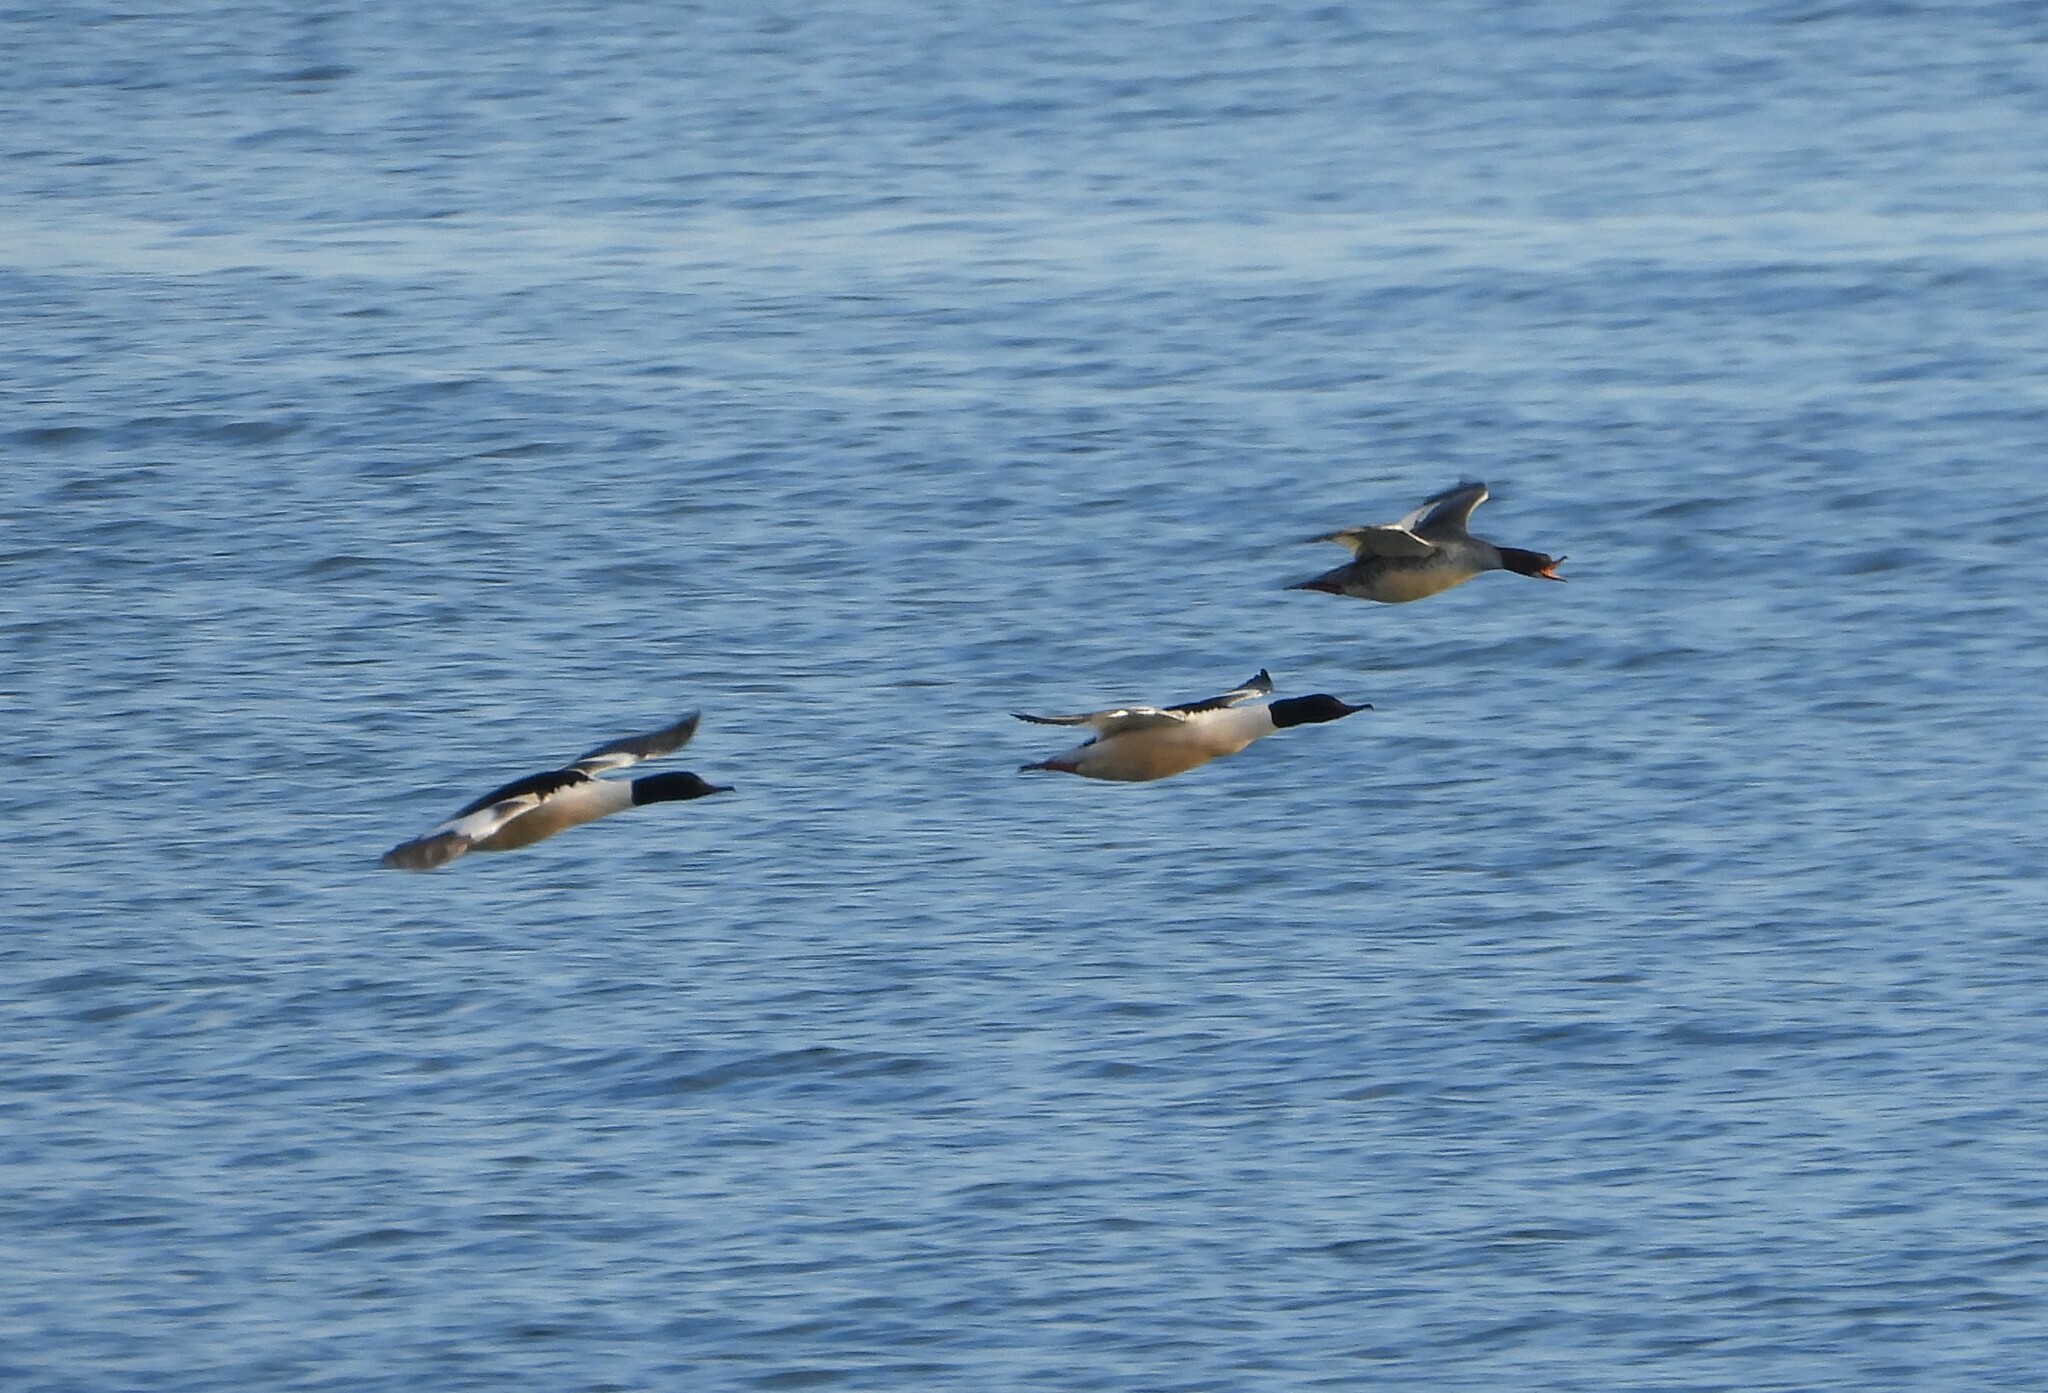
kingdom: Animalia
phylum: Chordata
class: Aves
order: Anseriformes
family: Anatidae
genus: Mergus
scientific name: Mergus merganser
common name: Common merganser
